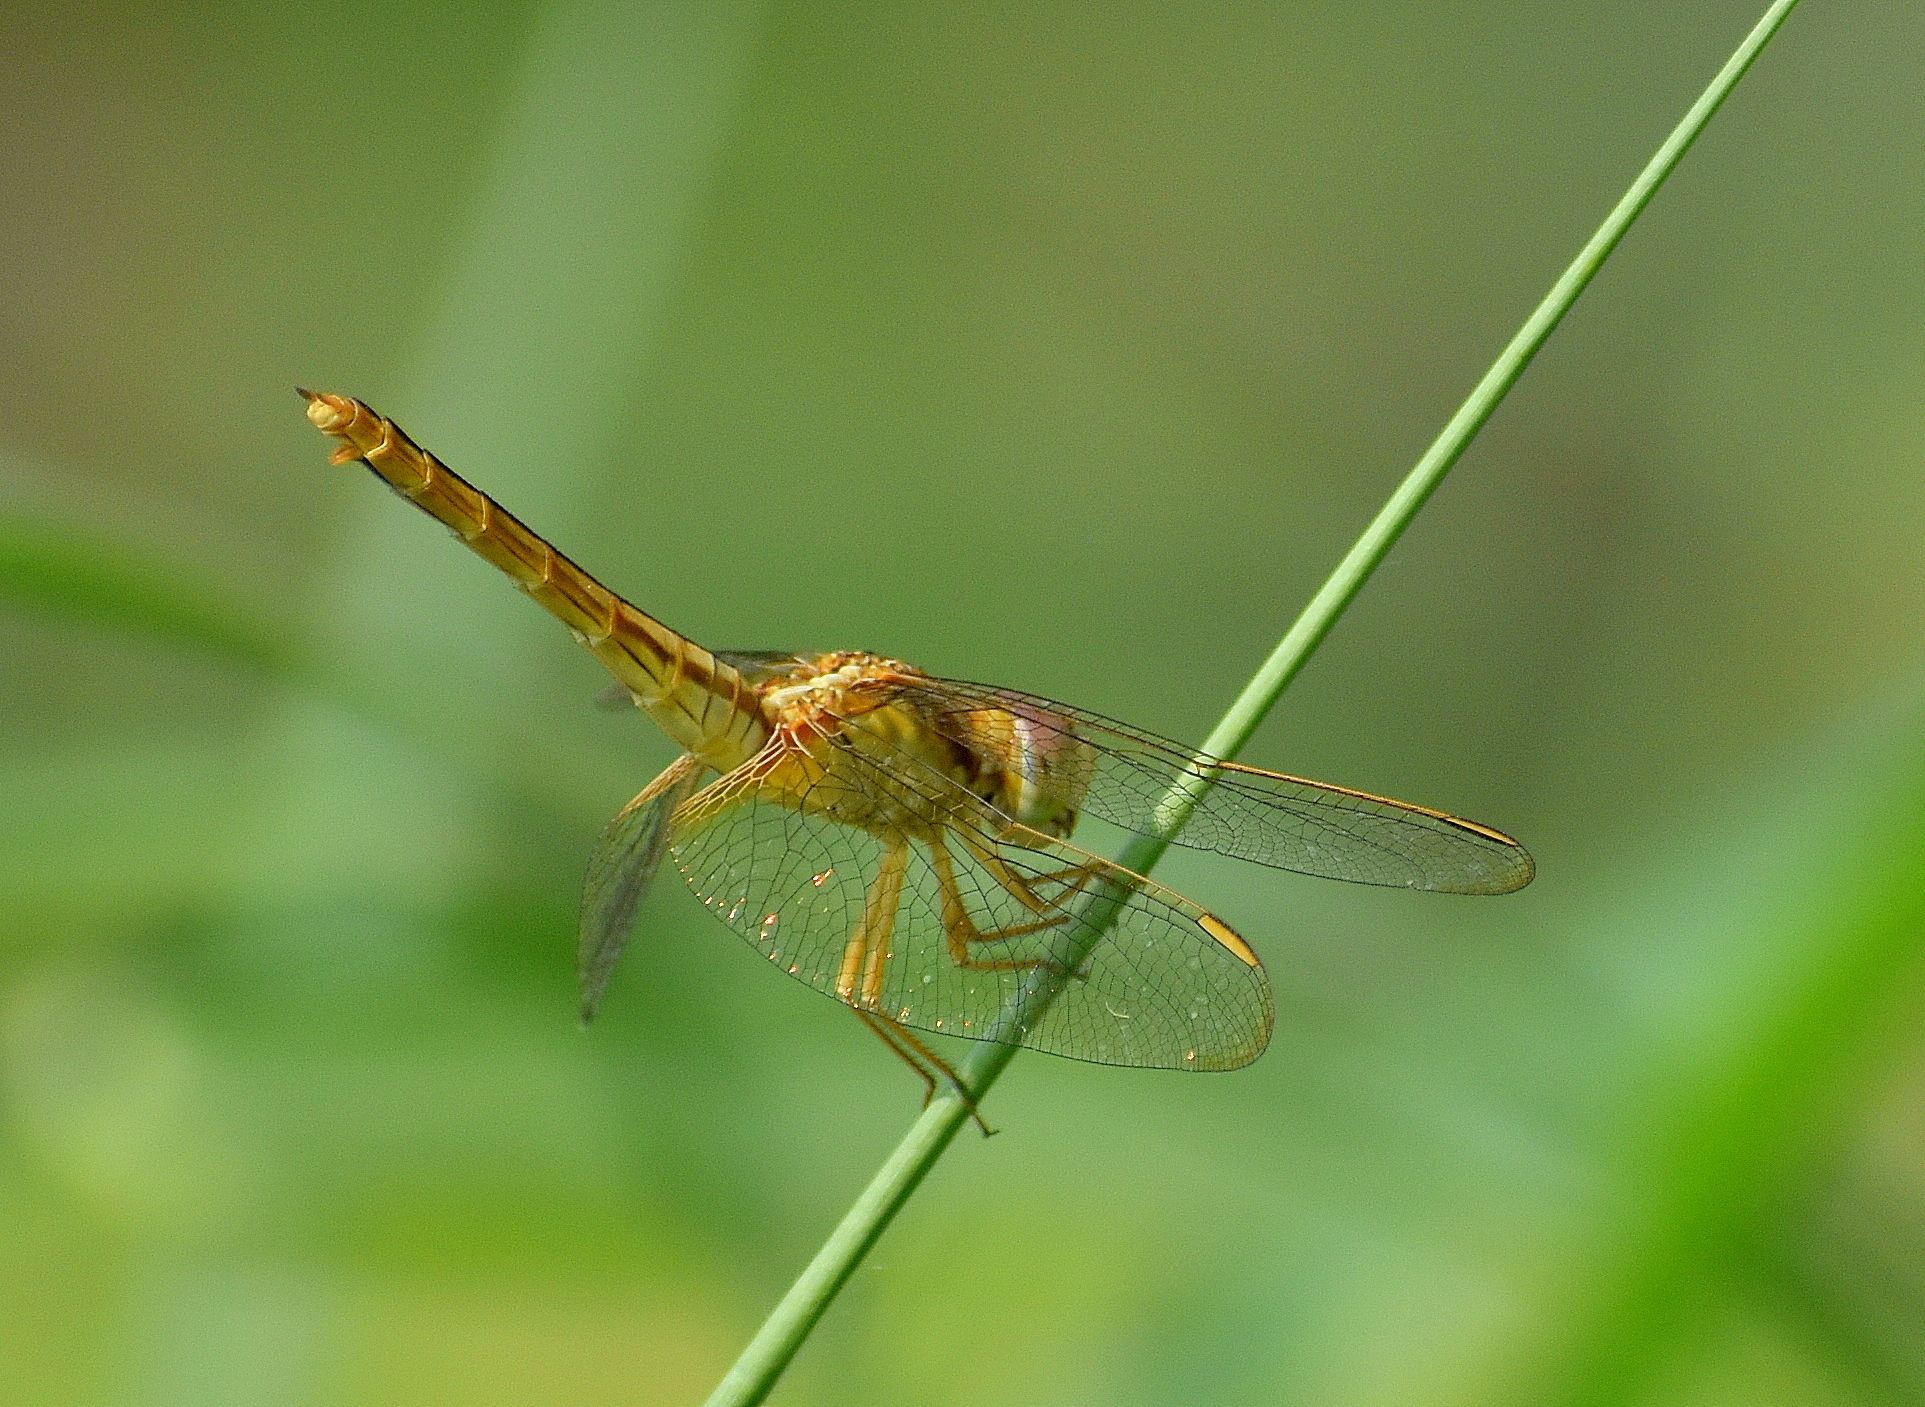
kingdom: Animalia
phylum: Arthropoda
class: Insecta
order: Odonata
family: Libellulidae
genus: Crocothemis
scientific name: Crocothemis servilia
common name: Scarlet skimmer
